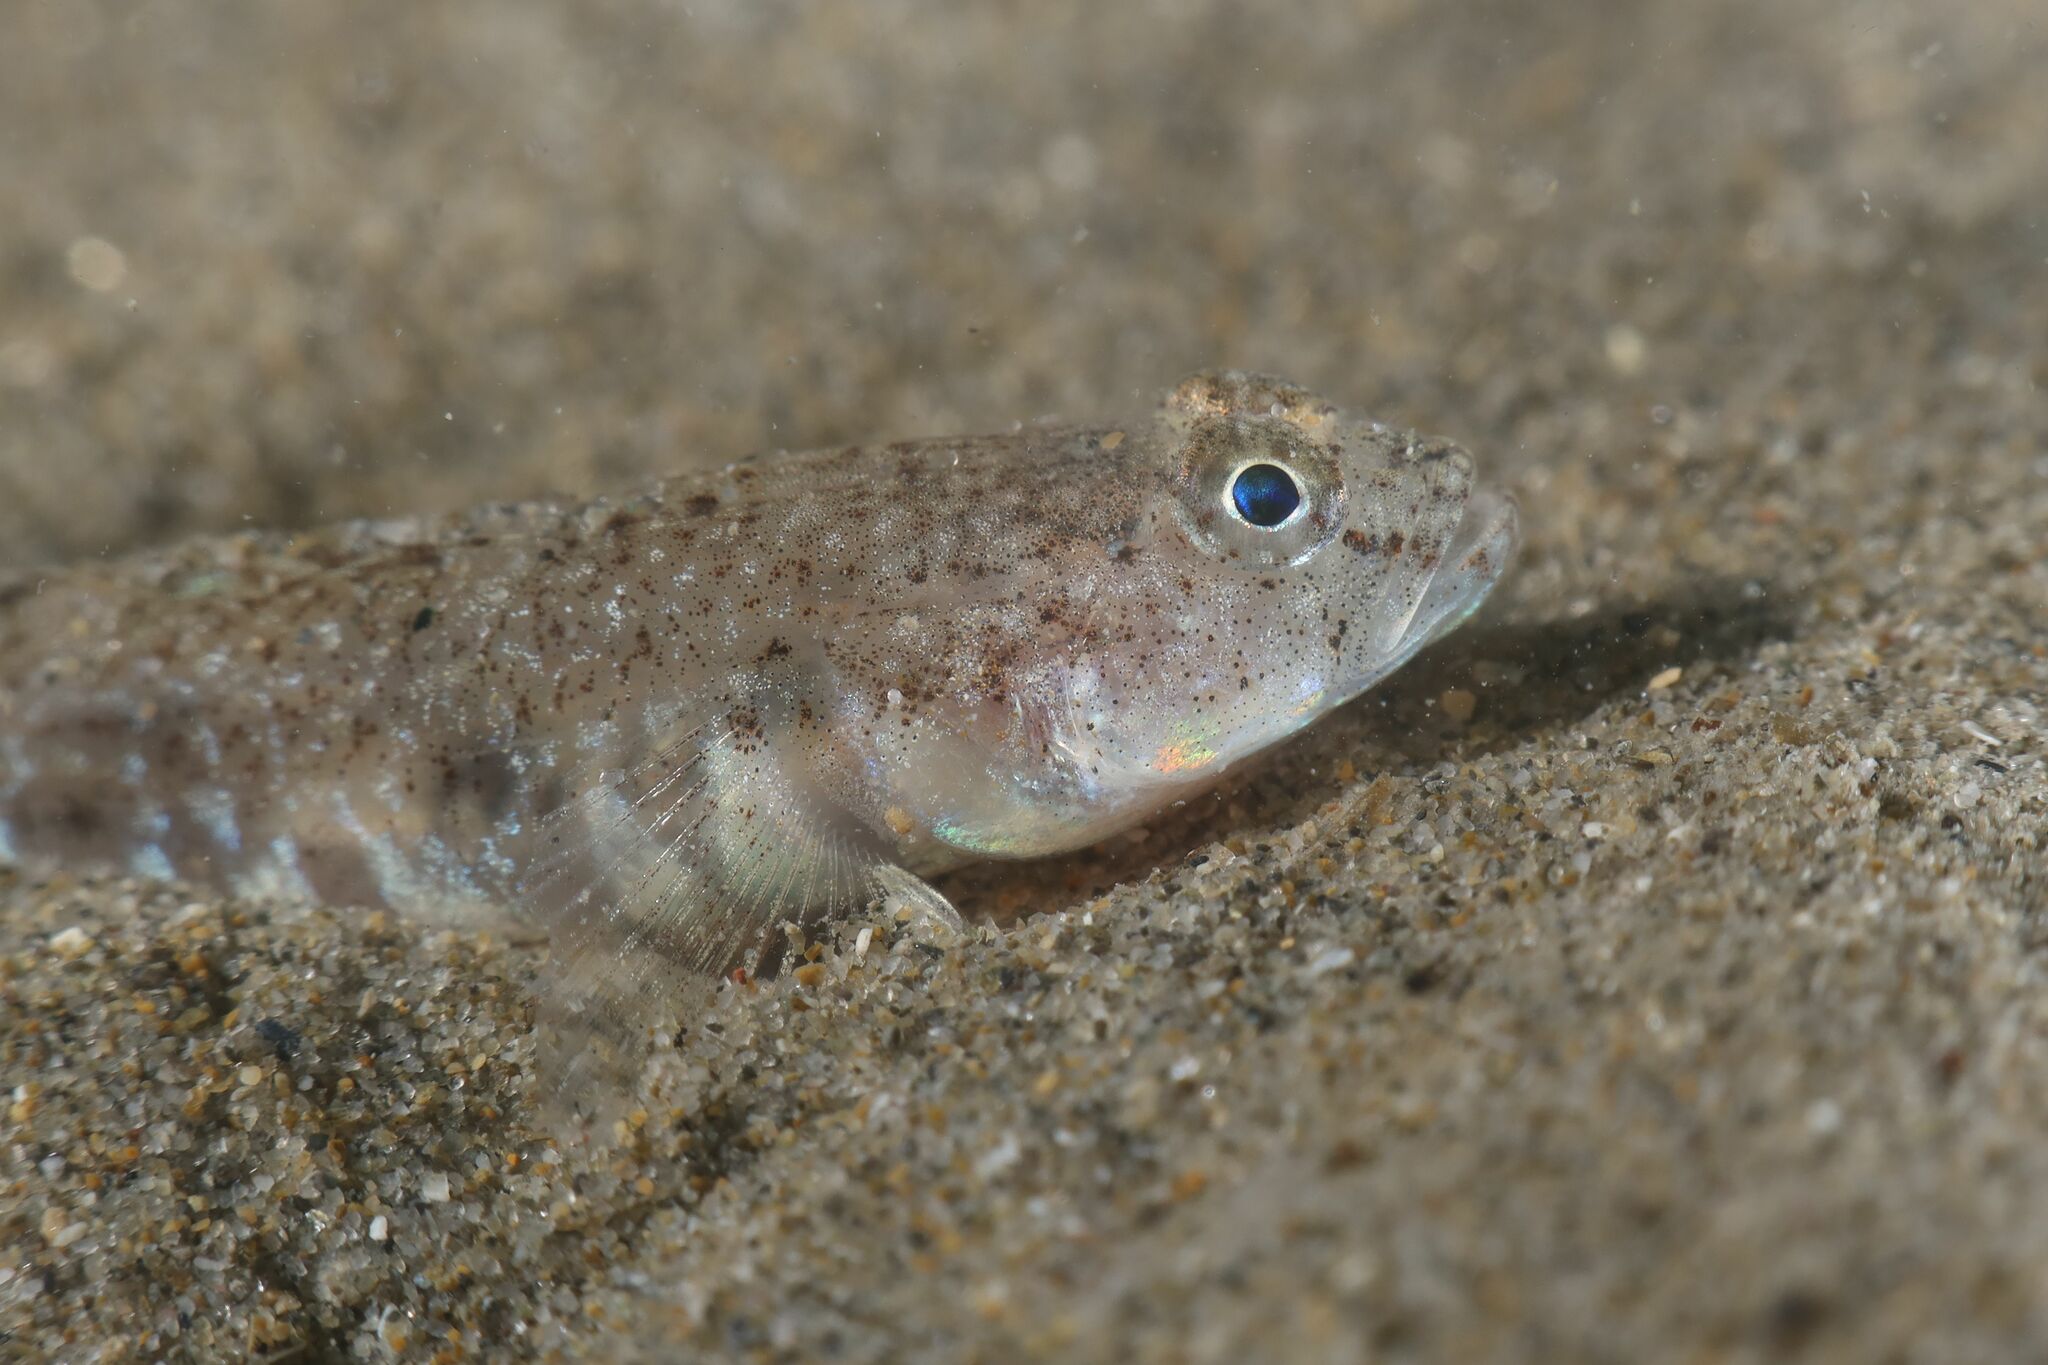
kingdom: Animalia
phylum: Chordata
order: Perciformes
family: Gobiidae
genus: Pomatoschistus
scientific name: Pomatoschistus marmoratus
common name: Marbled goby
